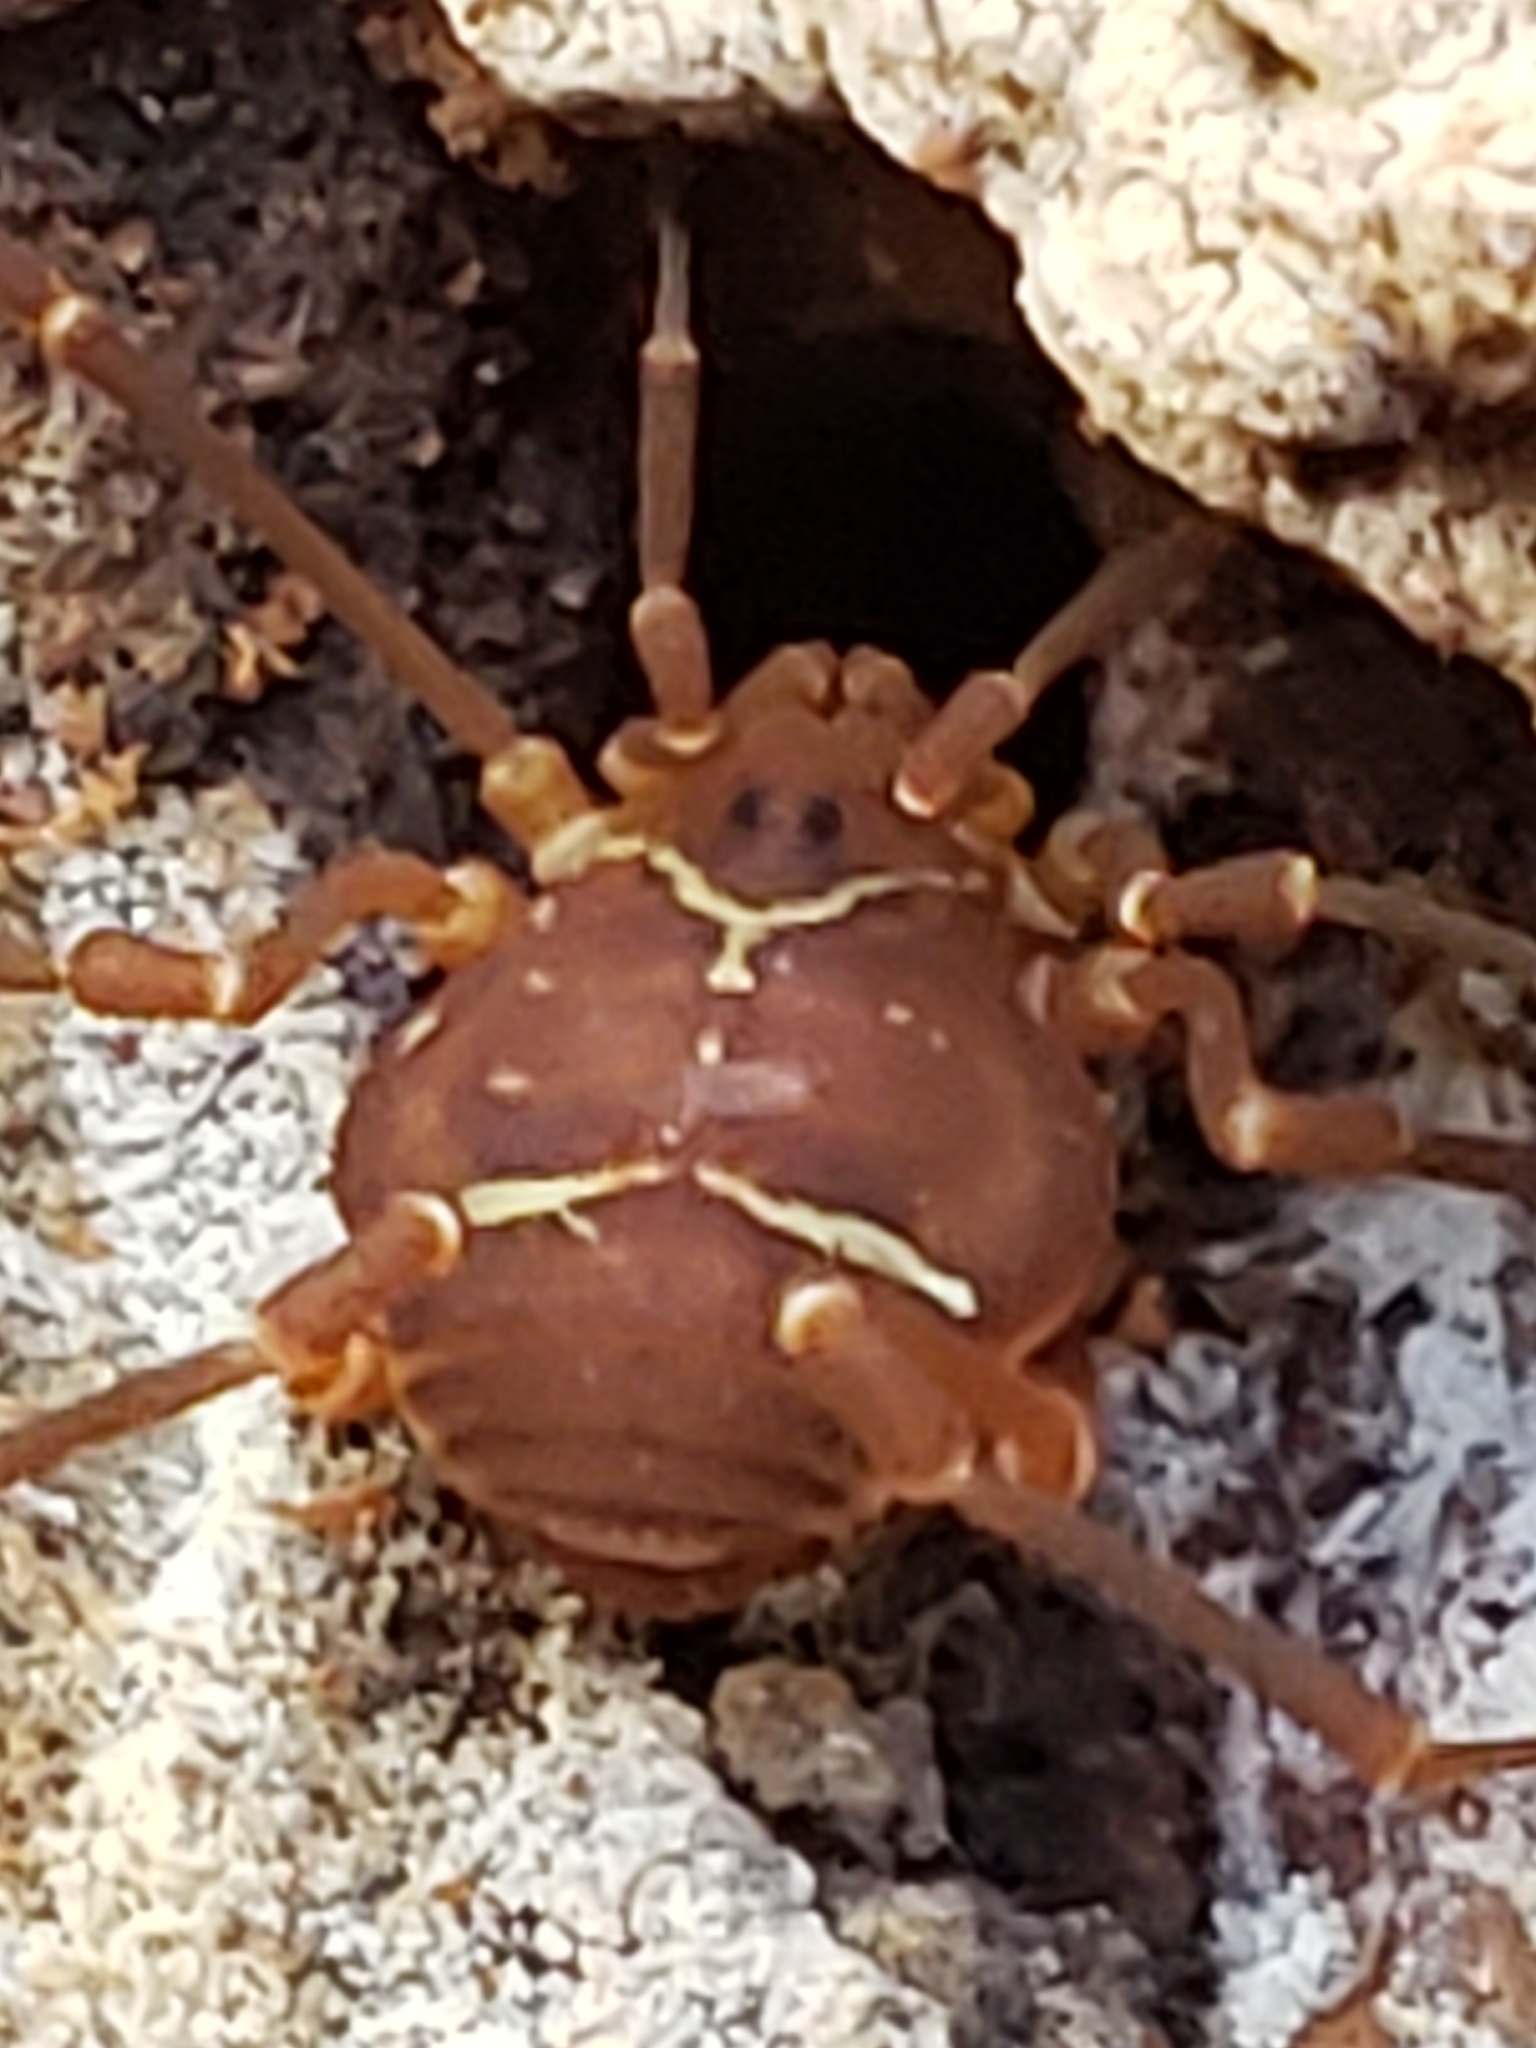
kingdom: Animalia
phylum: Arthropoda
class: Arachnida
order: Opiliones
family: Cosmetidae
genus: Libitioides
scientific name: Libitioides sayi
